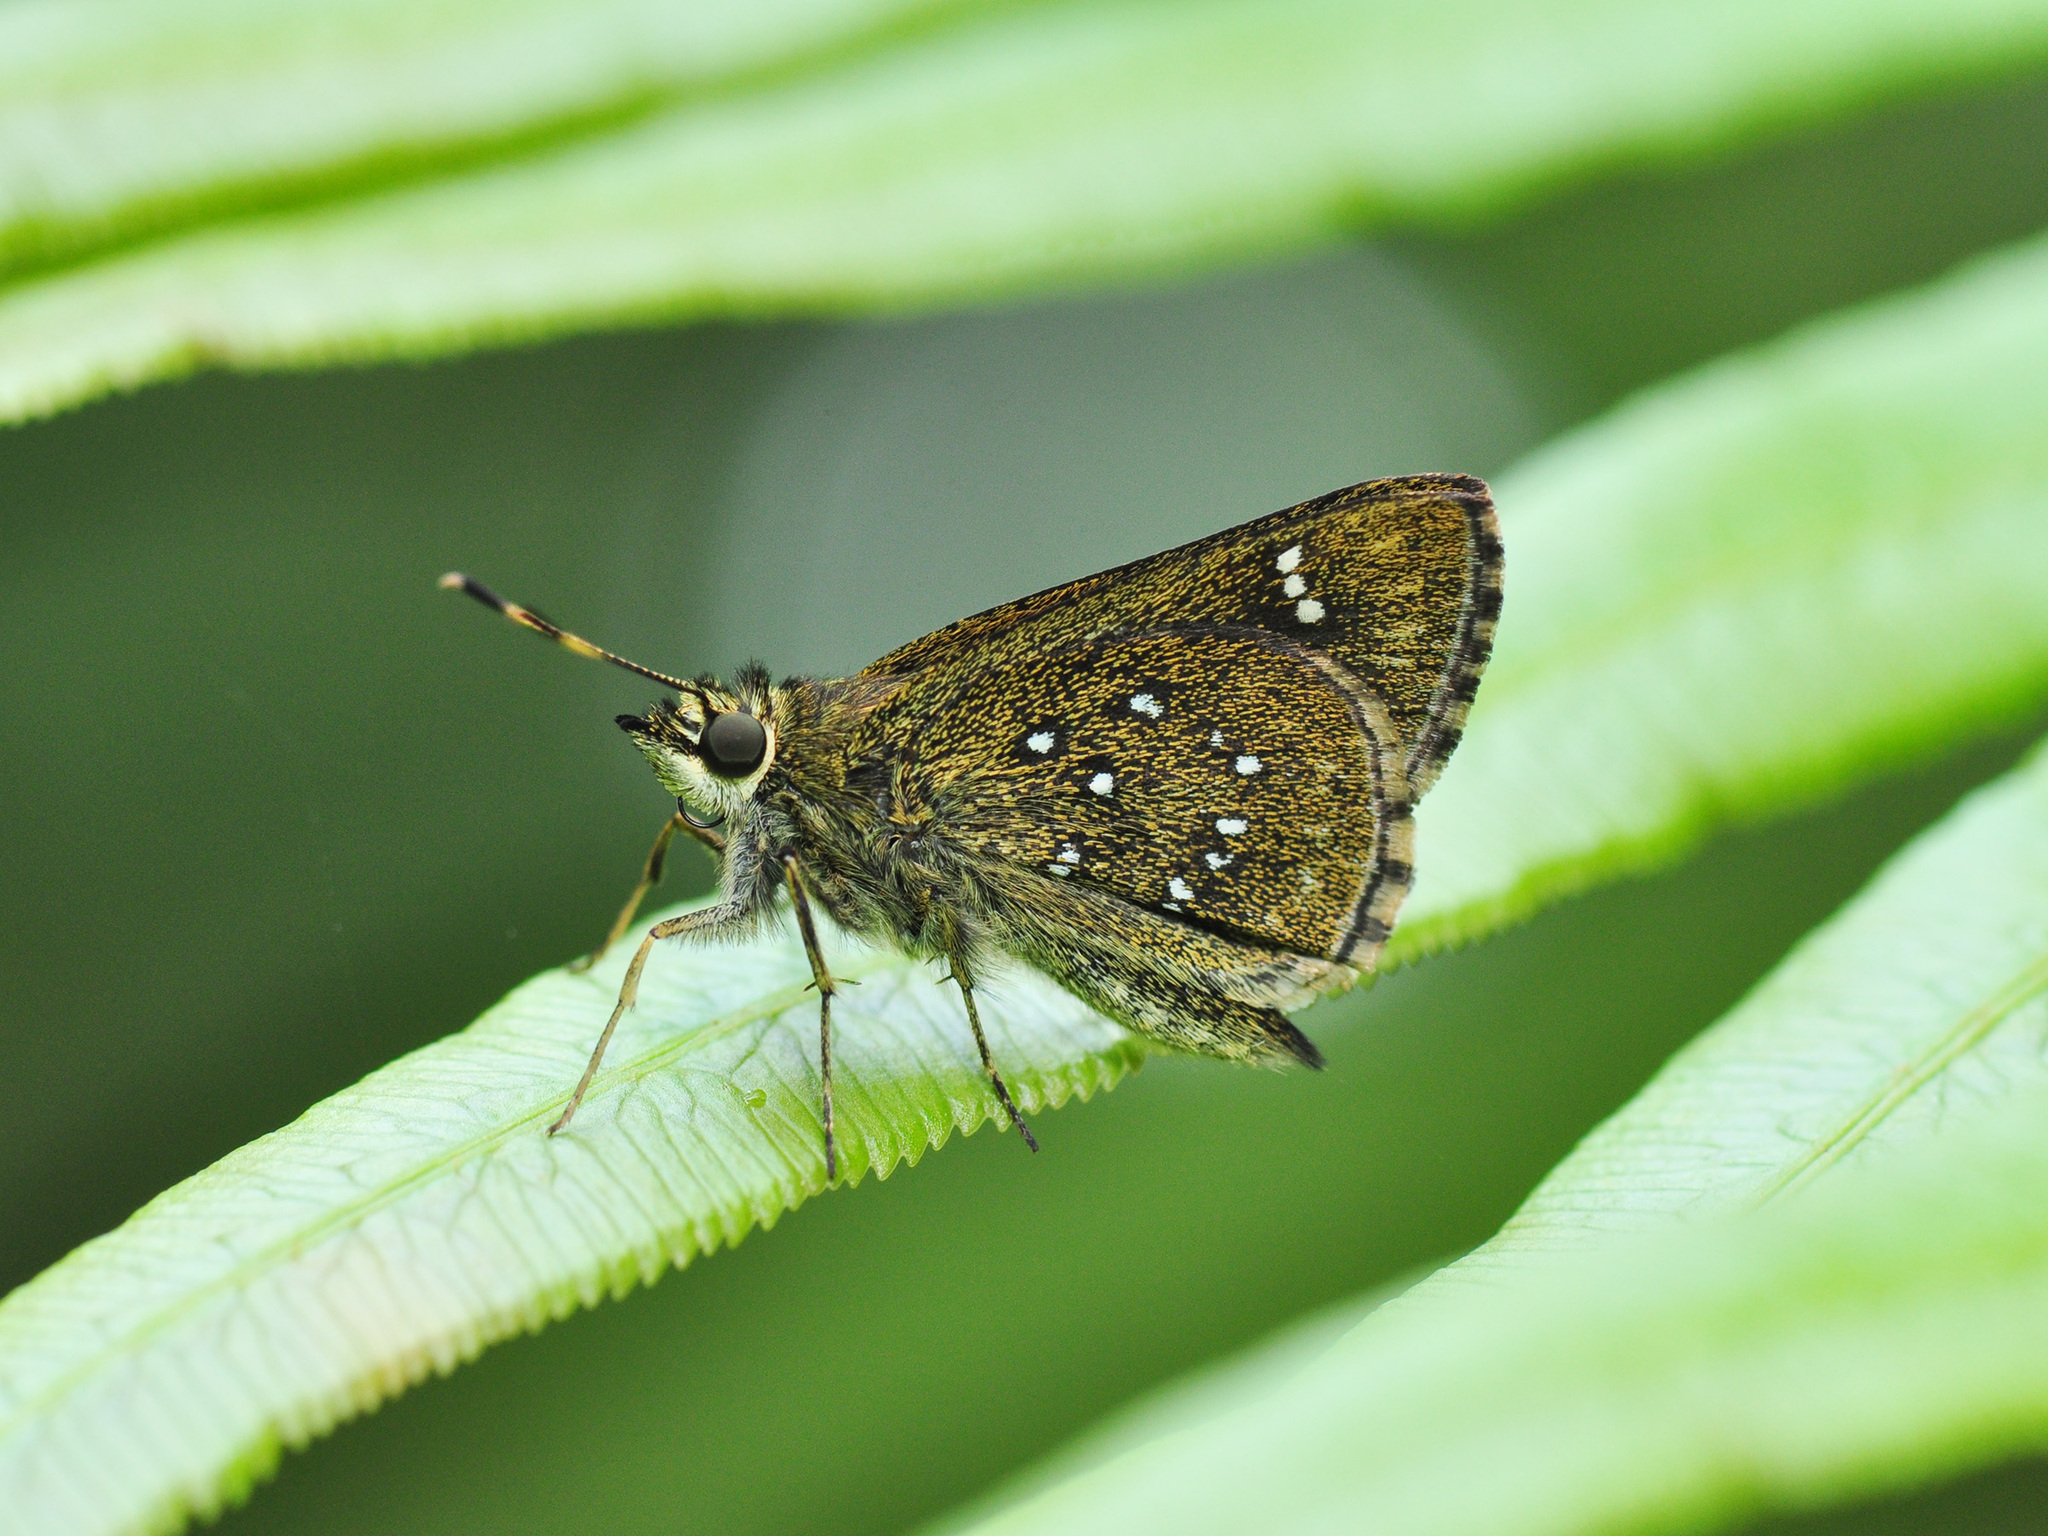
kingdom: Animalia
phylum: Arthropoda
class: Insecta
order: Lepidoptera
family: Hesperiidae
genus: Arnetta
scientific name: Arnetta atkinsoni
